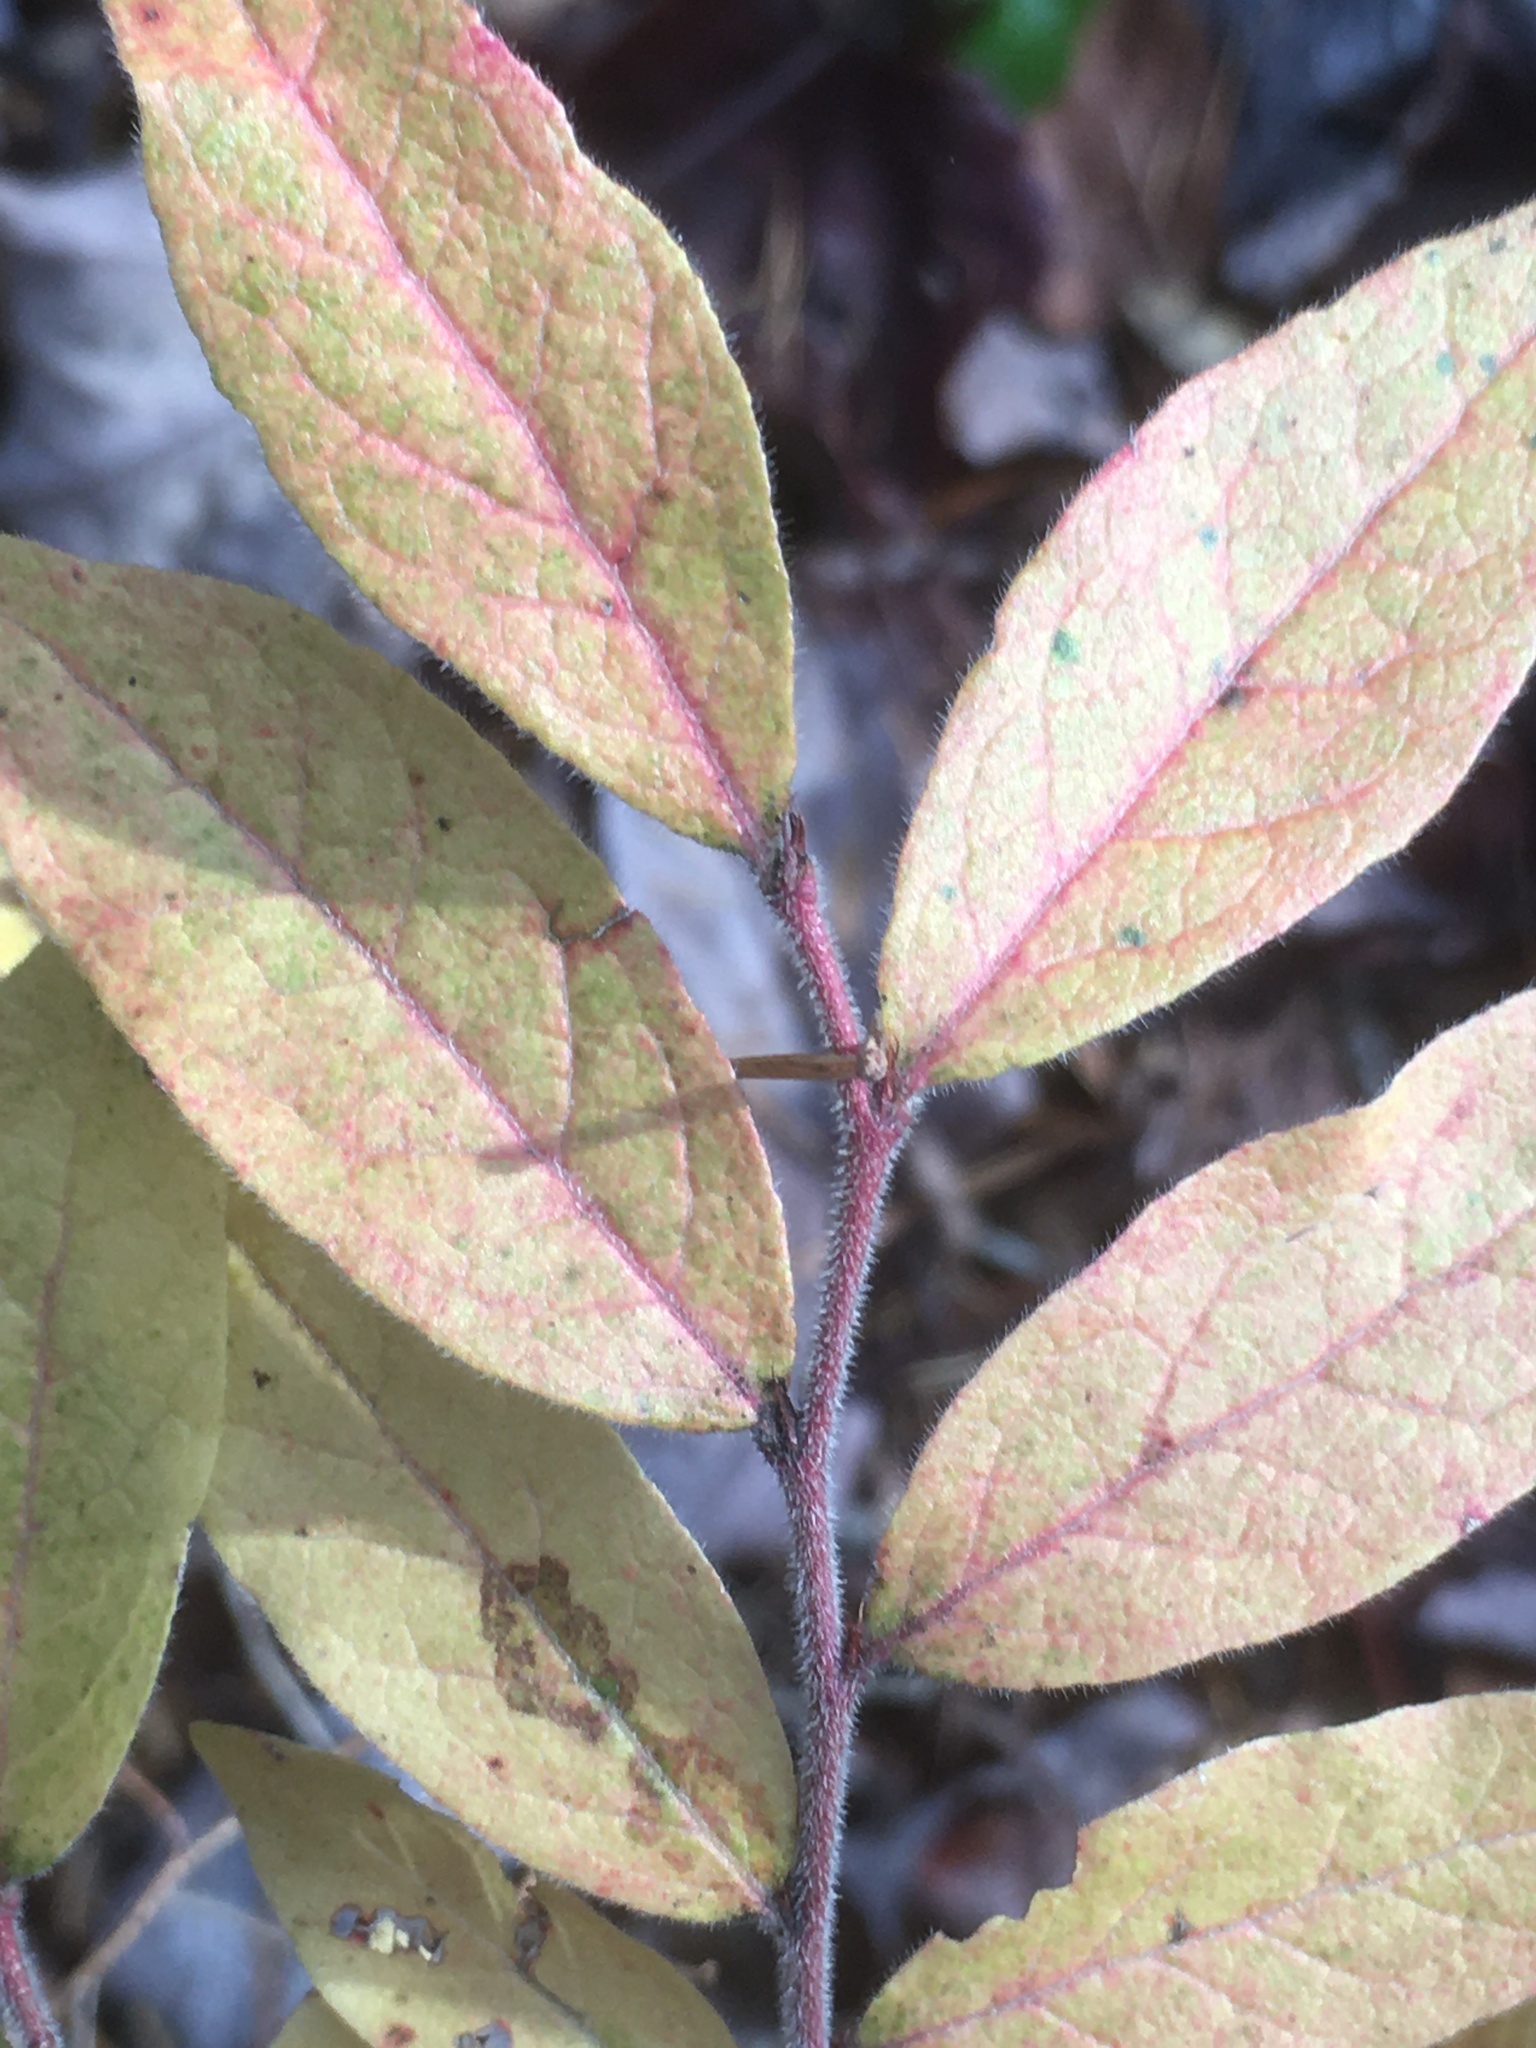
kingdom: Plantae
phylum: Tracheophyta
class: Magnoliopsida
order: Ericales
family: Ericaceae
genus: Vaccinium
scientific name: Vaccinium myrtilloides
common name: Canada blueberry
